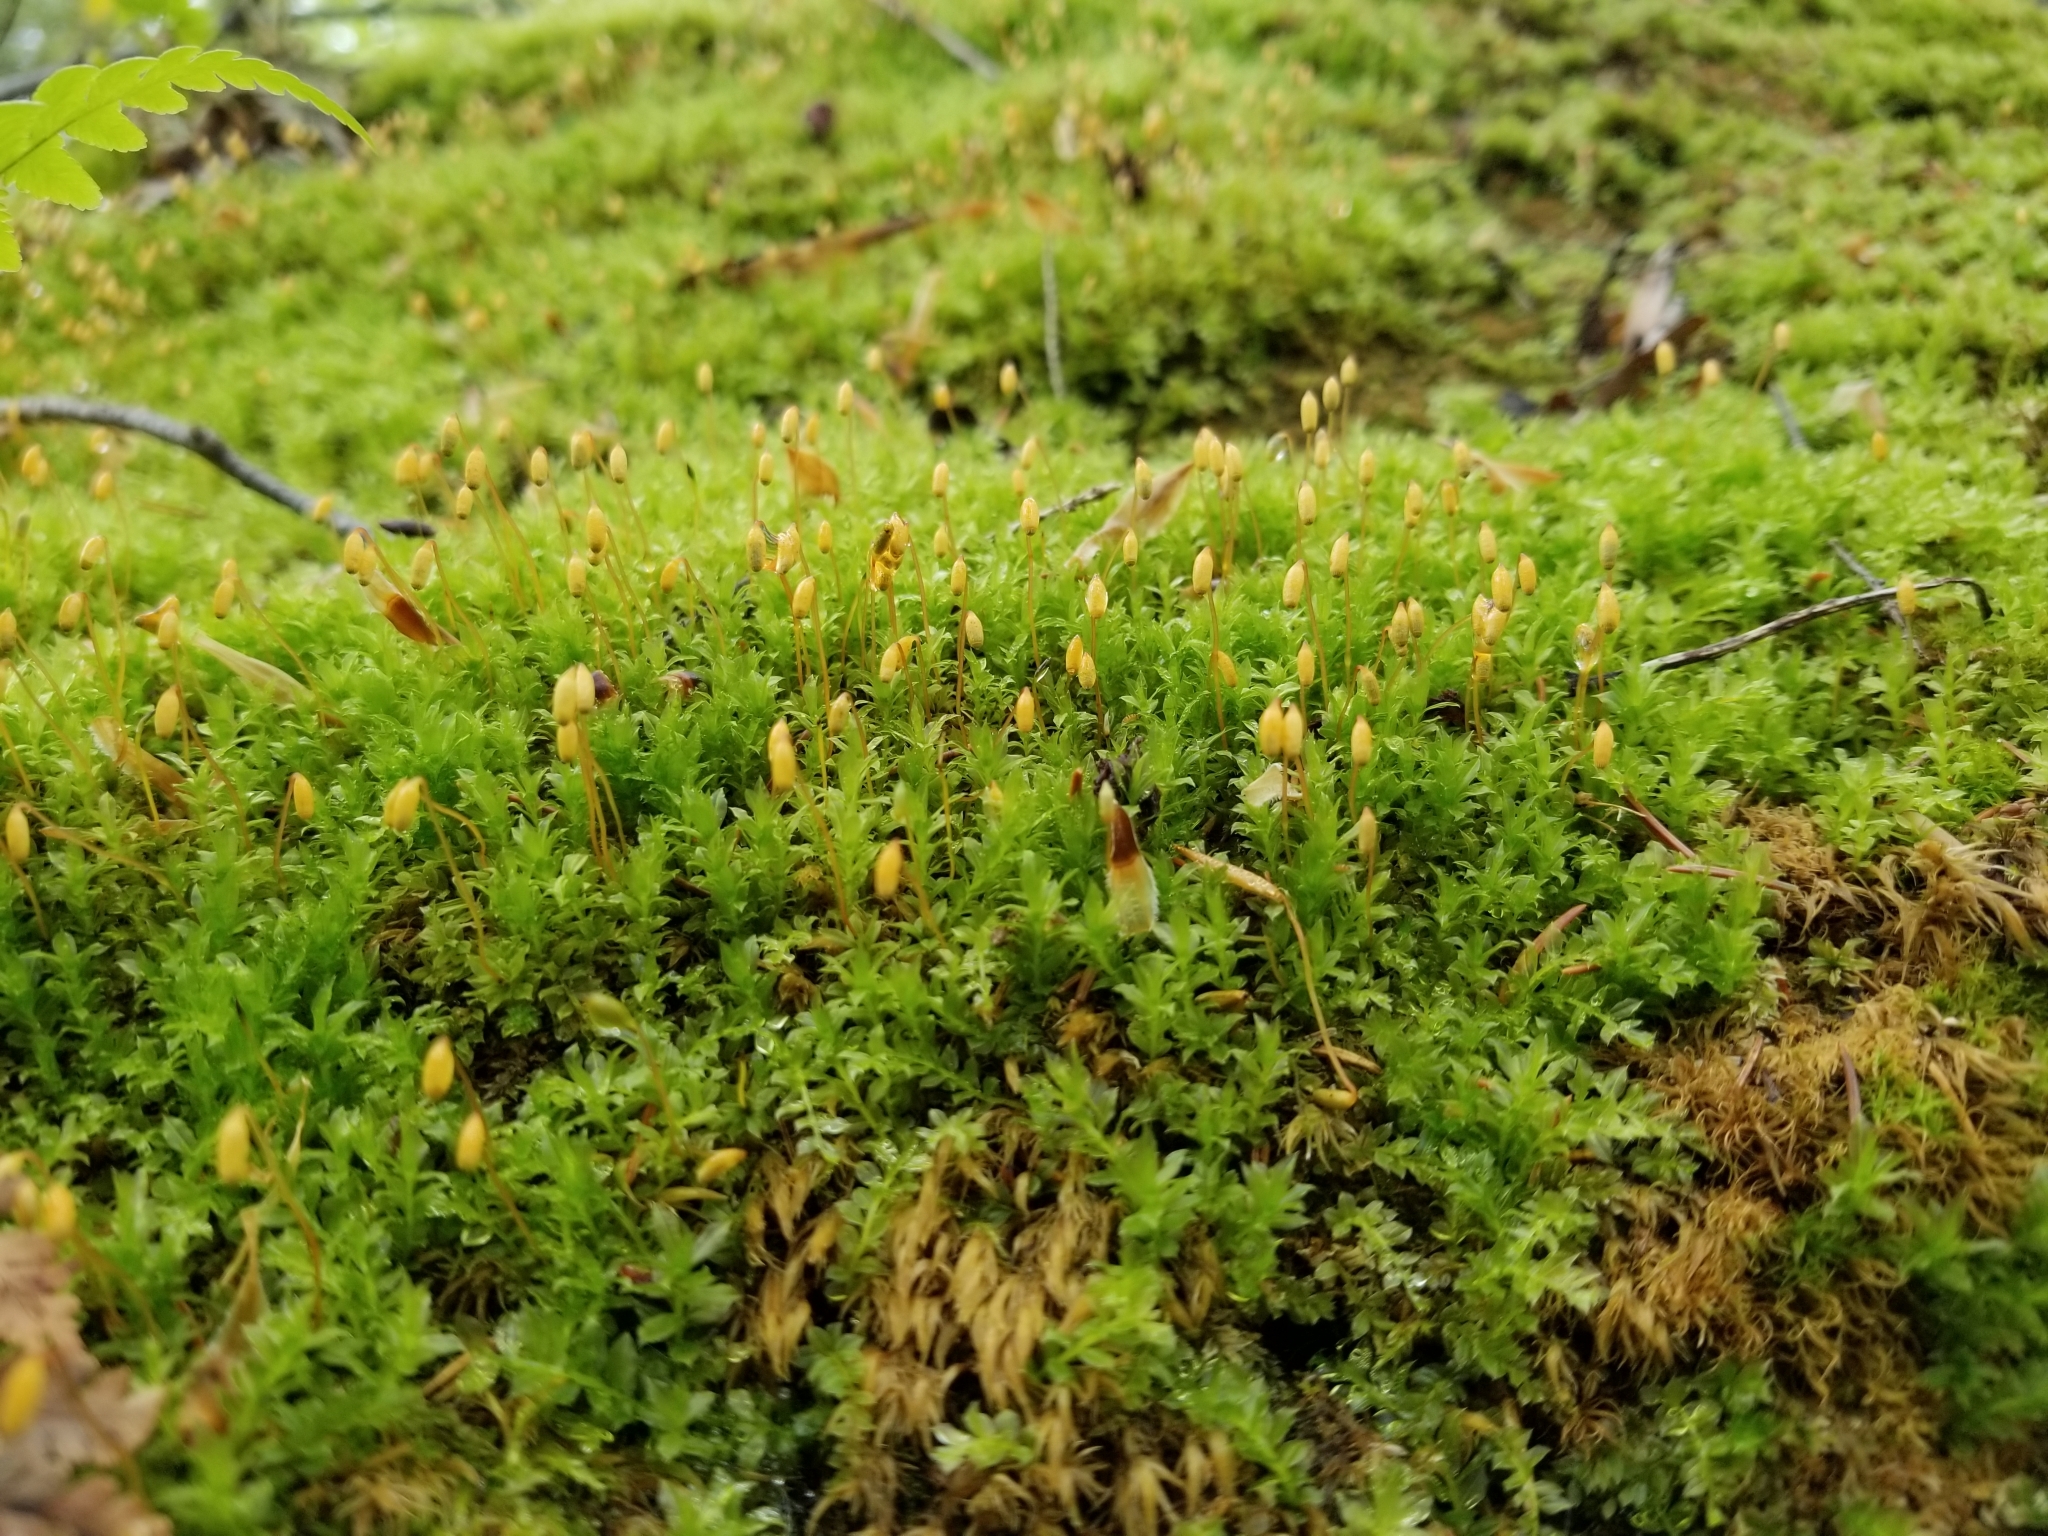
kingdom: Plantae
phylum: Bryophyta
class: Bryopsida
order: Bryales
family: Mniaceae
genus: Plagiomnium
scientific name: Plagiomnium cuspidatum
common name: Woodsy leafy moss
